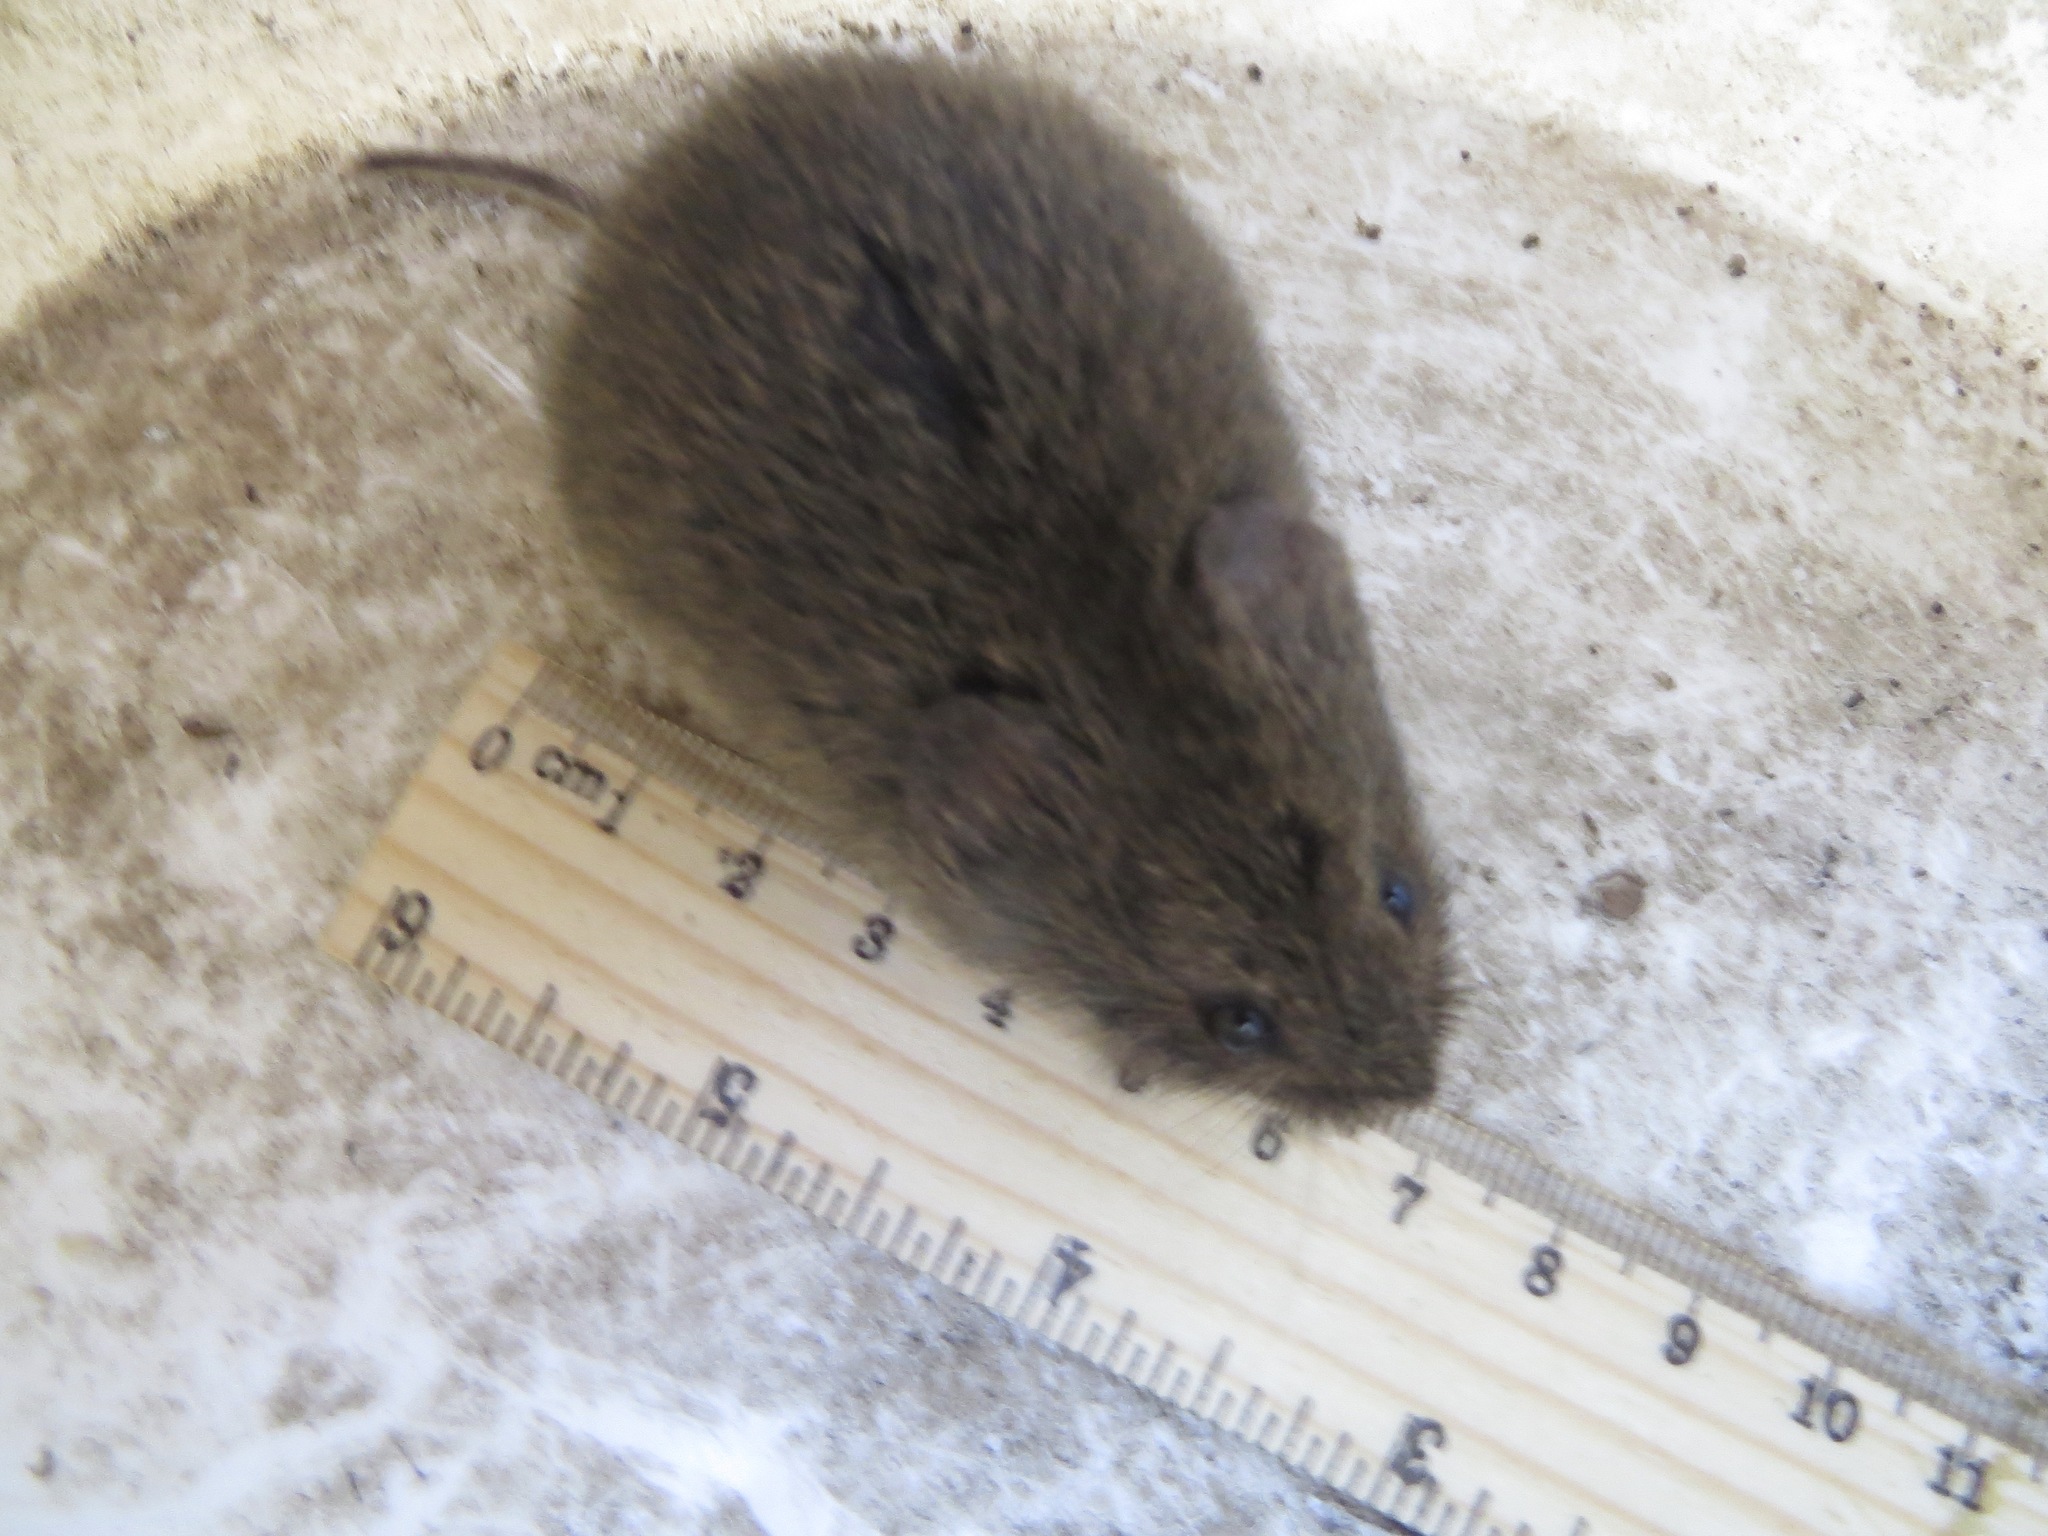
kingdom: Animalia
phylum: Chordata
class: Mammalia
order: Rodentia
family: Cricetidae
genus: Microtus
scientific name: Microtus californicus
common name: California vole
